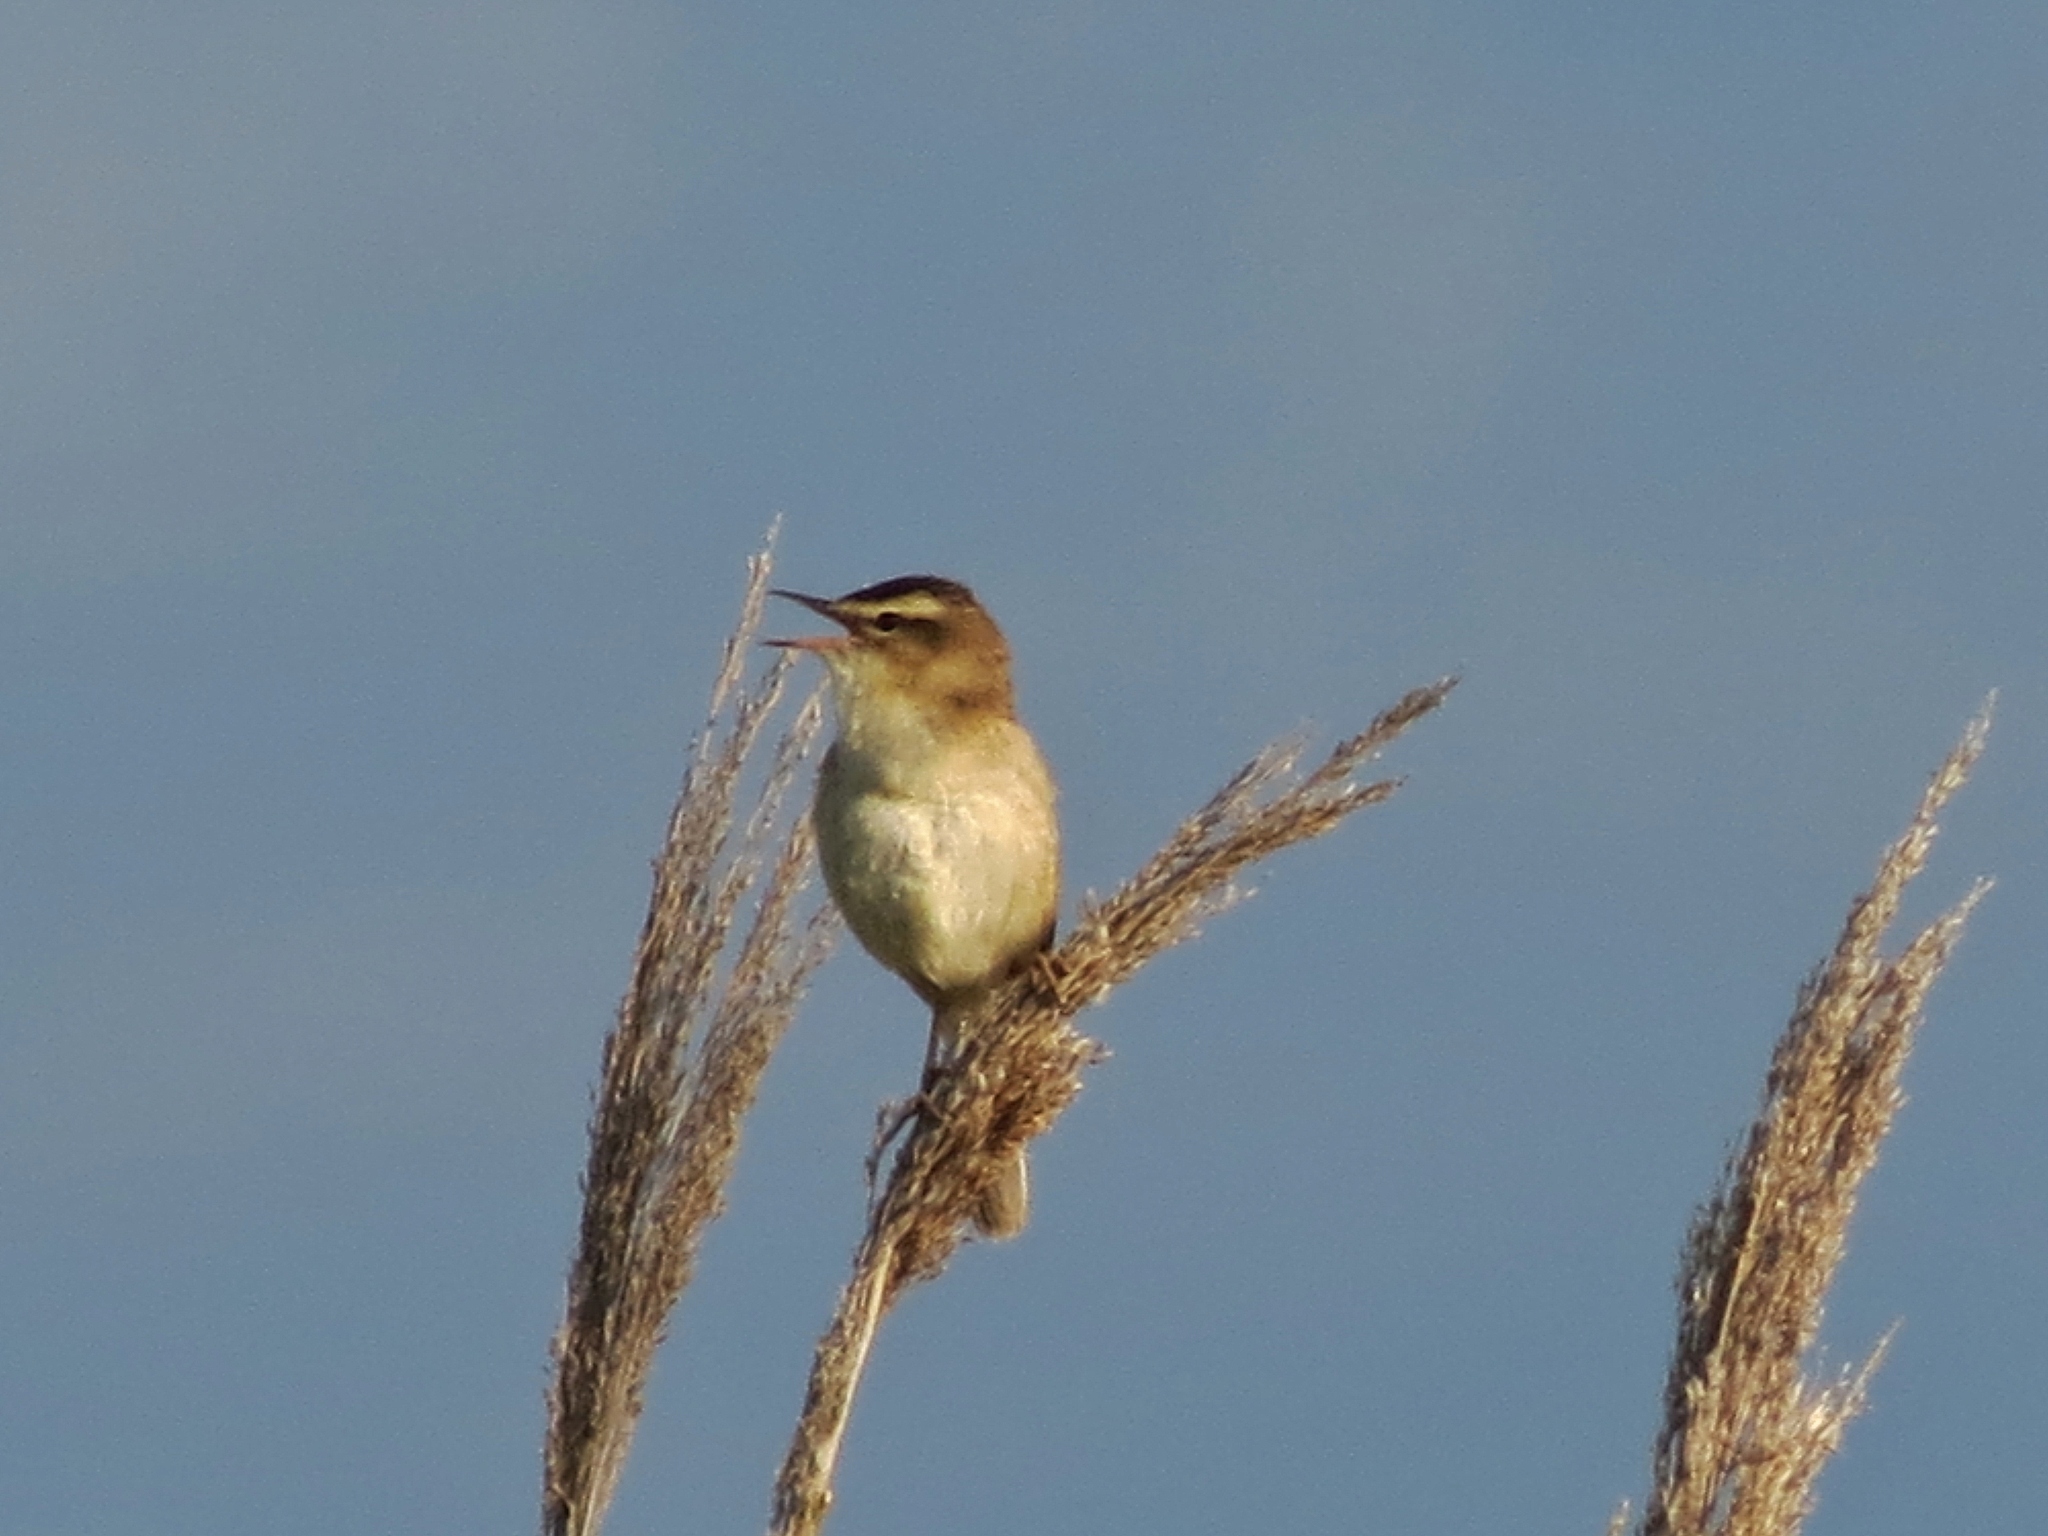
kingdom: Animalia
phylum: Chordata
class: Aves
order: Passeriformes
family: Acrocephalidae
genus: Acrocephalus
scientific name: Acrocephalus schoenobaenus
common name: Sedge warbler
